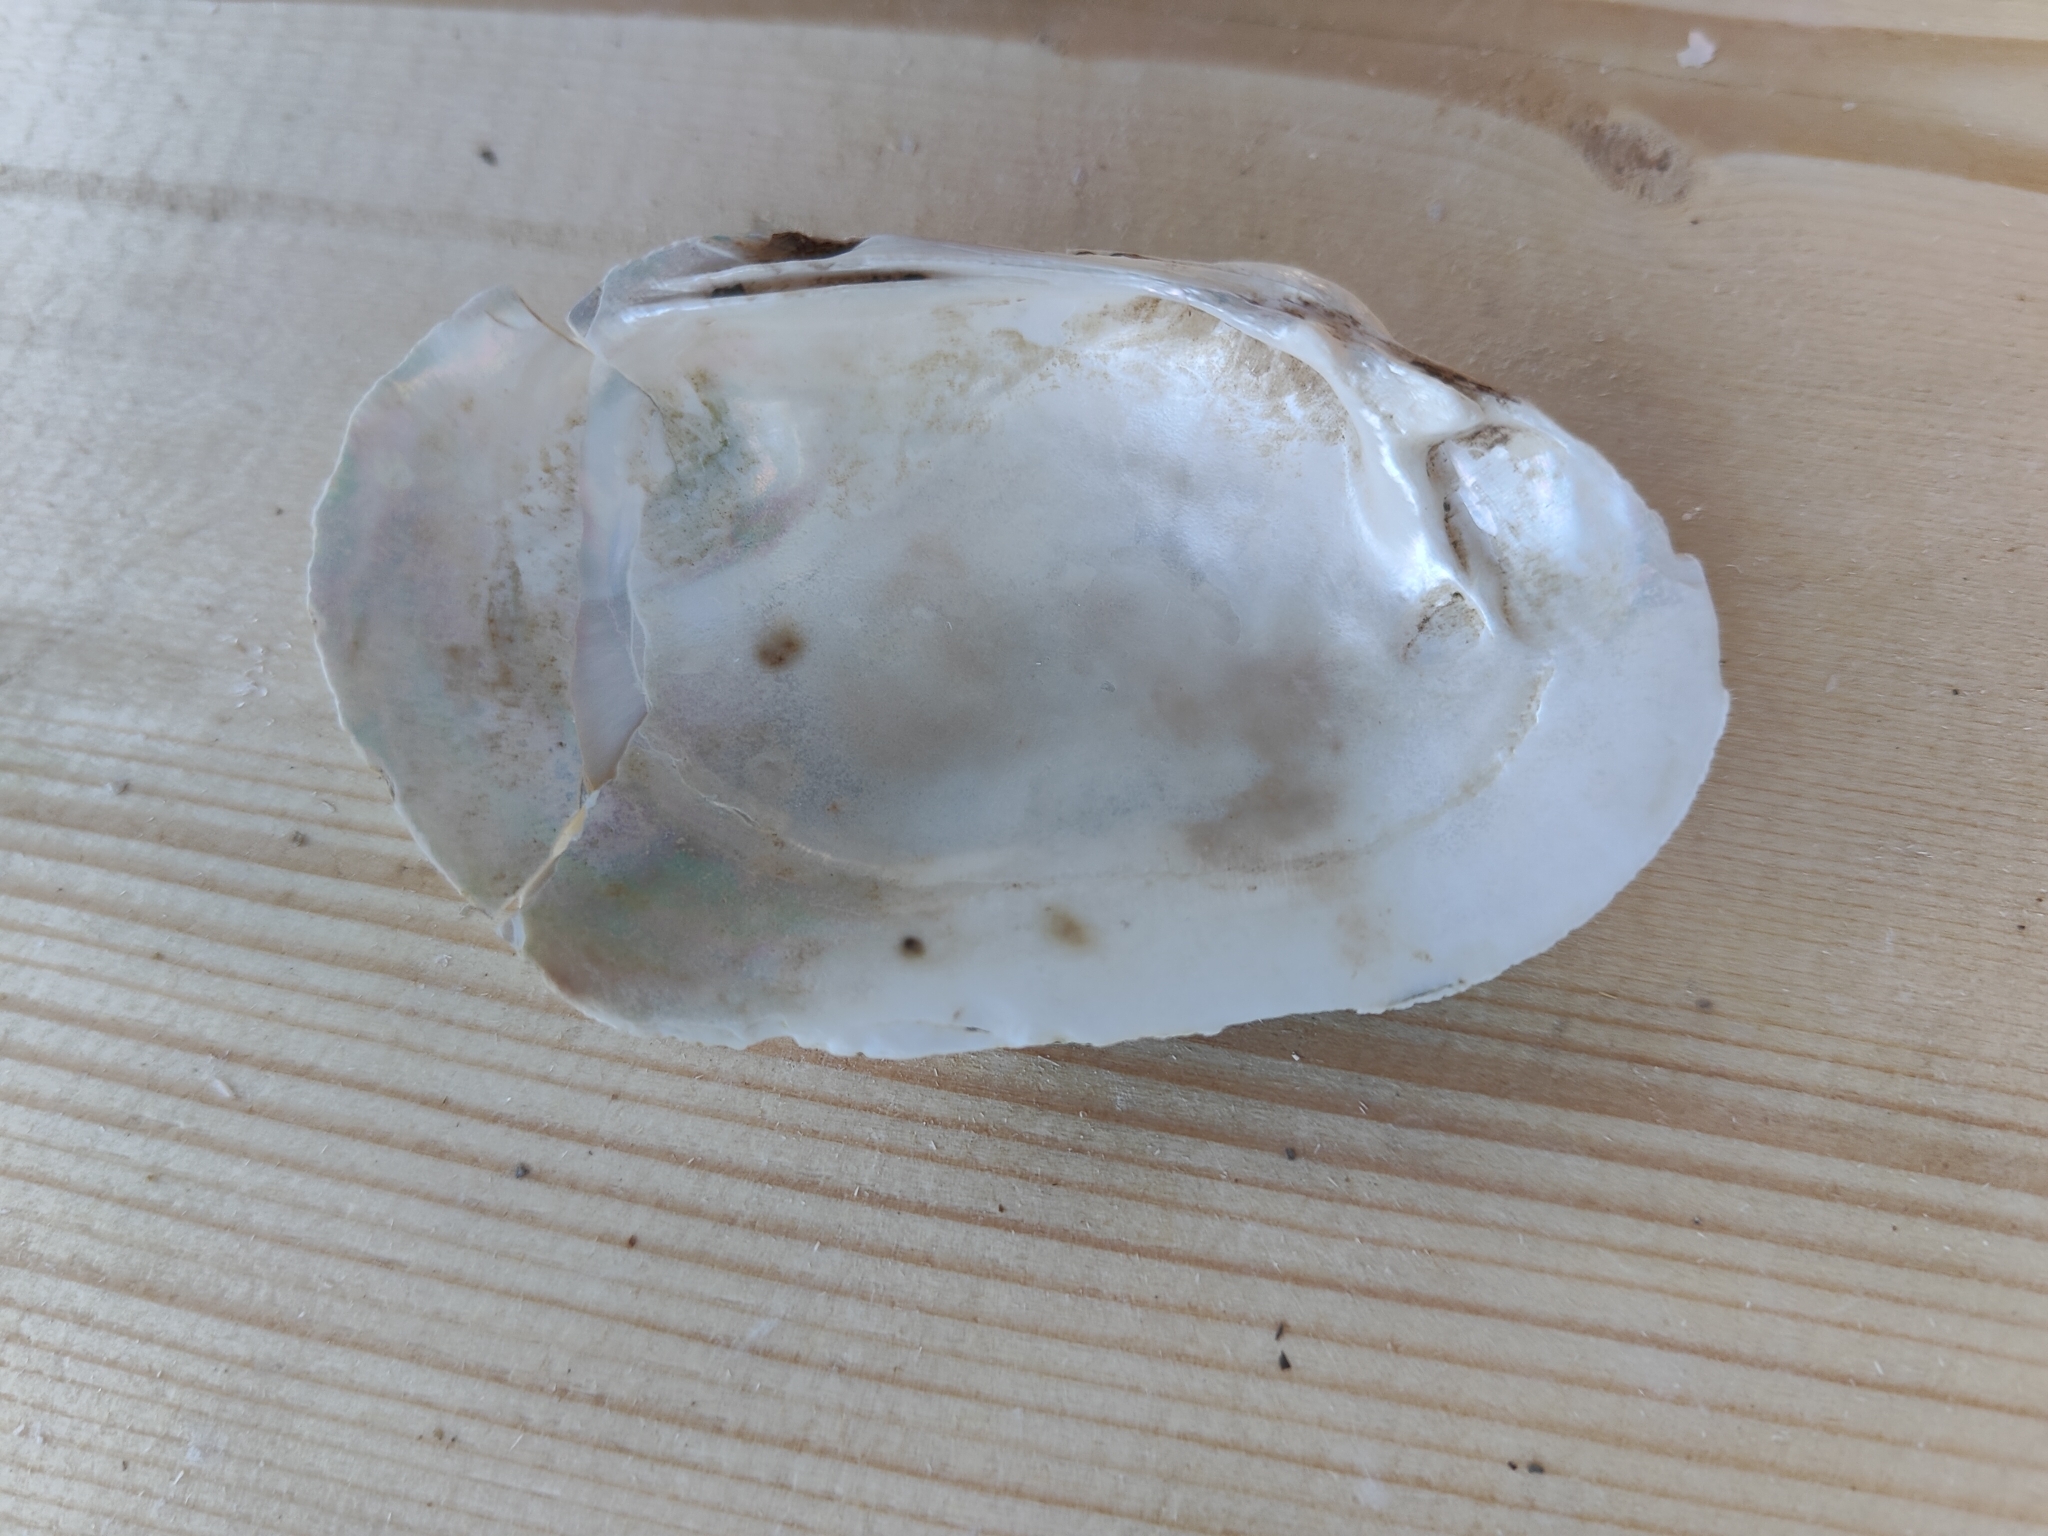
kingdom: Animalia
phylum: Mollusca
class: Bivalvia
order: Unionida
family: Unionidae
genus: Lampsilis
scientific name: Lampsilis siliquoidea
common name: Fatmucket
